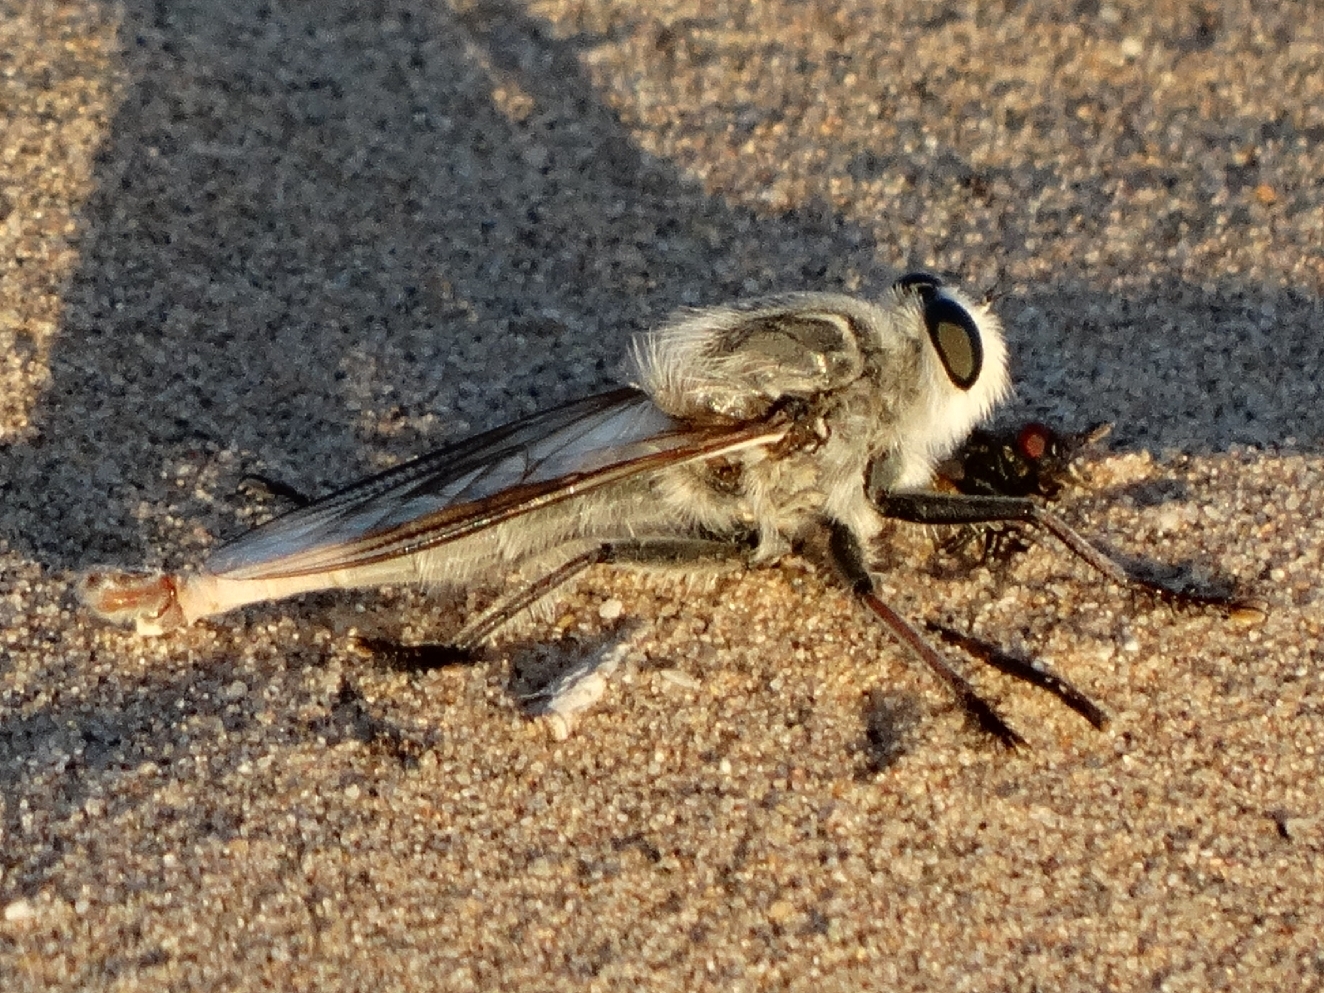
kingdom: Animalia
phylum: Arthropoda
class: Insecta
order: Diptera
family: Asilidae
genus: Proctacanthus
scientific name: Proctacanthus coquillettii
